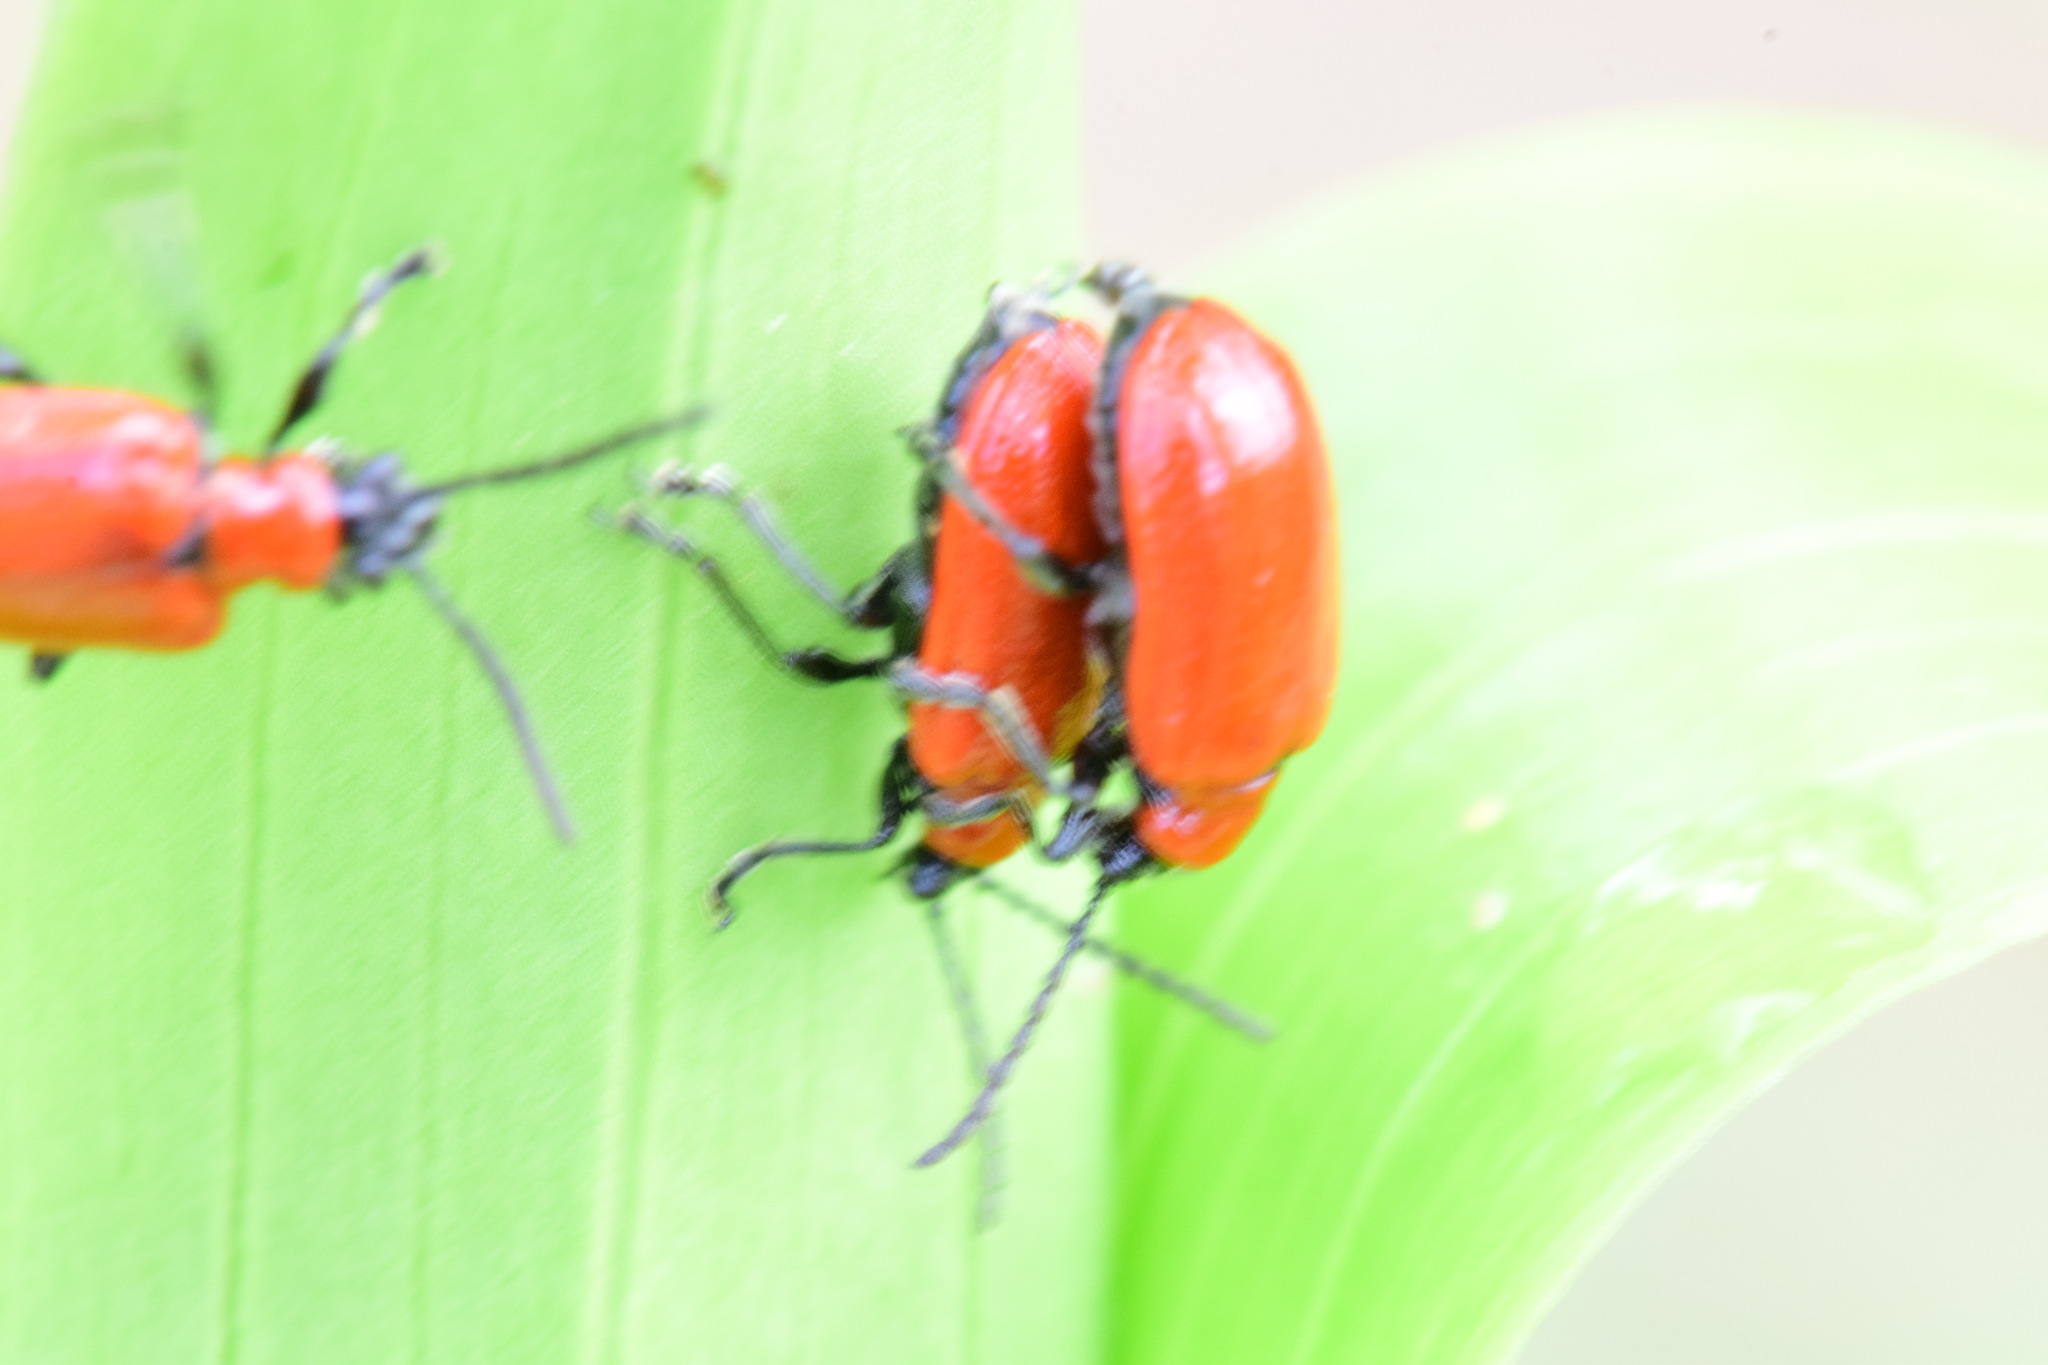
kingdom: Animalia
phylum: Arthropoda
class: Insecta
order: Coleoptera
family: Chrysomelidae
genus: Lilioceris
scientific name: Lilioceris lilii
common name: Lily beetle
